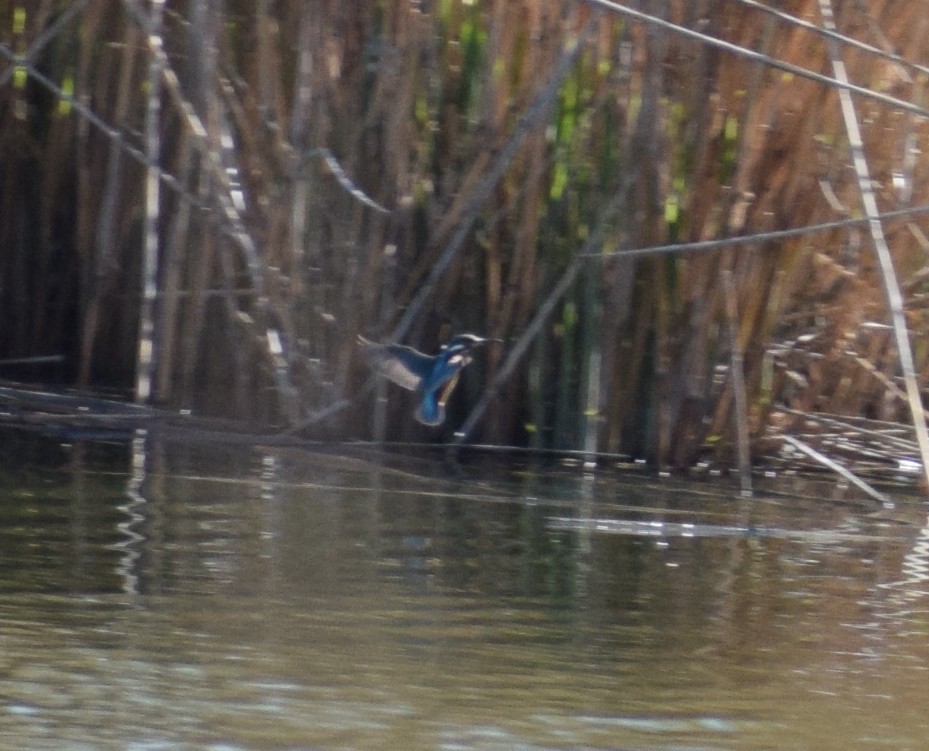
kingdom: Animalia
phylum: Chordata
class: Aves
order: Coraciiformes
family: Alcedinidae
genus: Alcedo
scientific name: Alcedo atthis
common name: Common kingfisher
